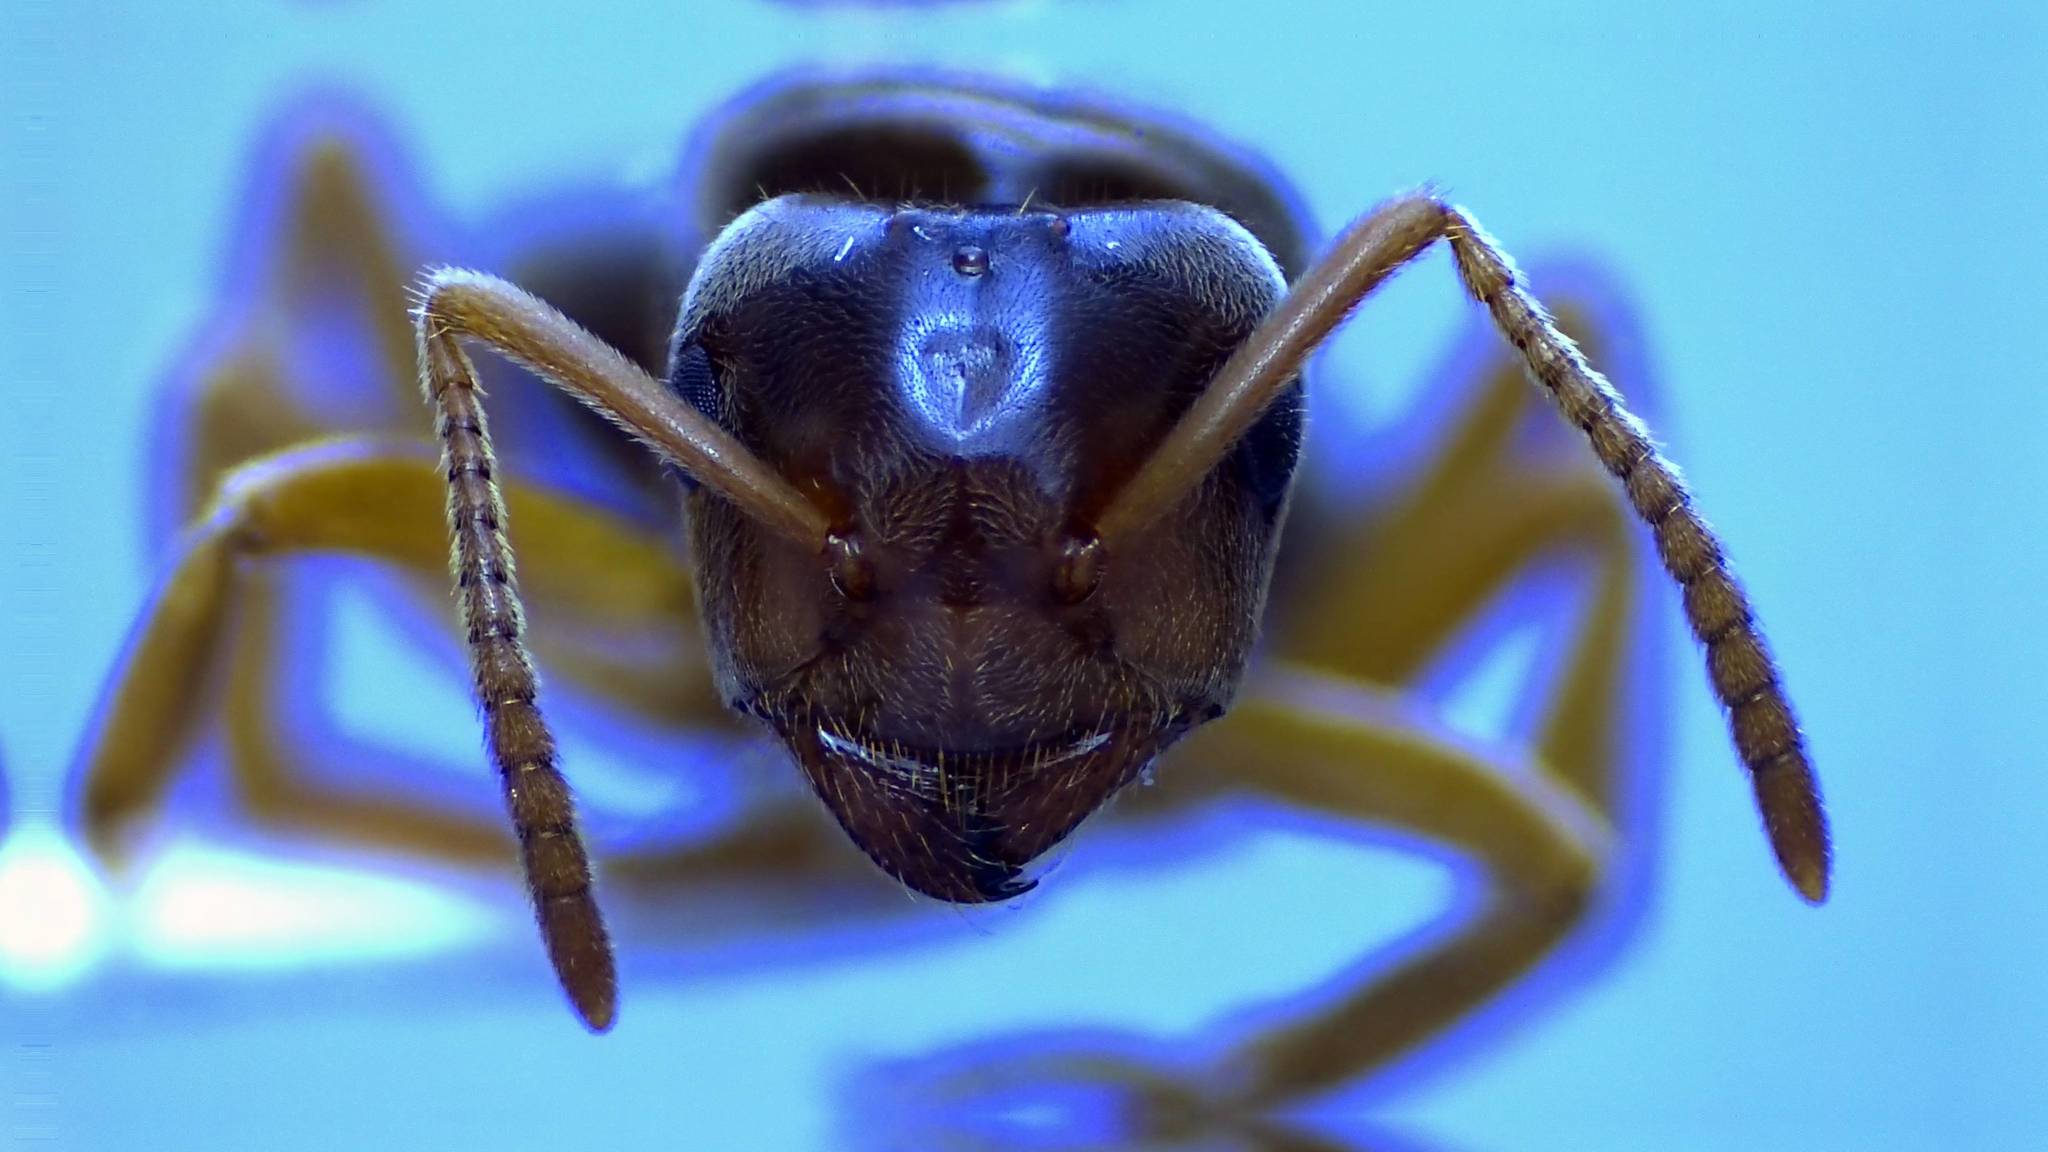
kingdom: Animalia
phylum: Arthropoda
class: Insecta
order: Hymenoptera
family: Formicidae
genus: Lasius
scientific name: Lasius speculiventris
